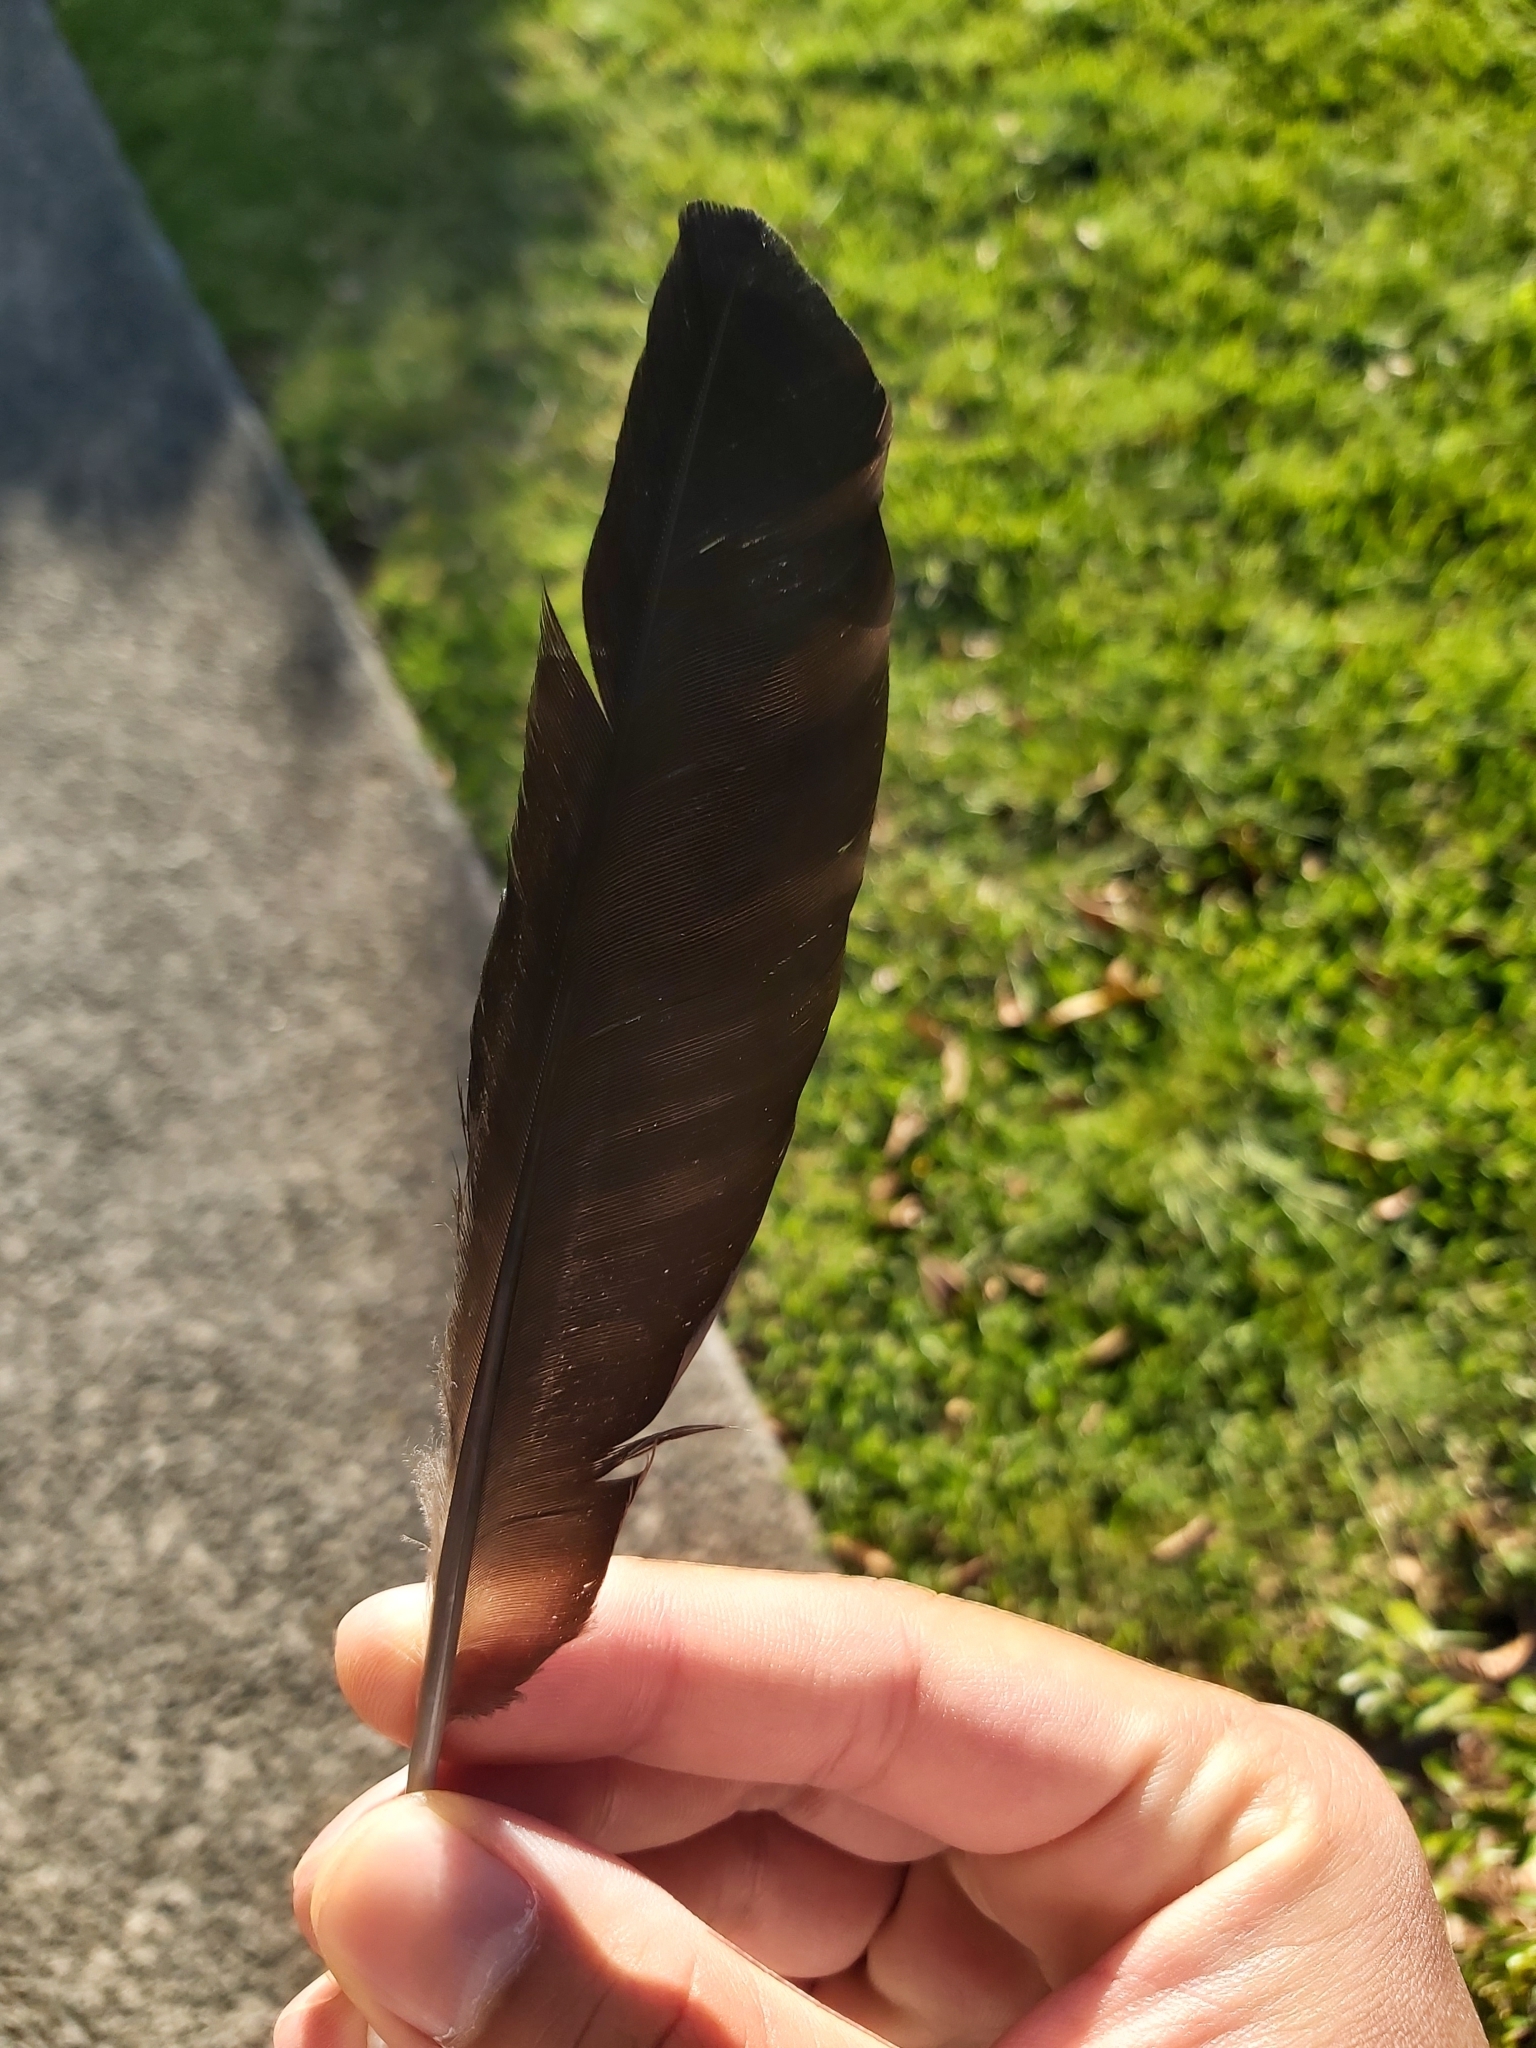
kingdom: Animalia
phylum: Chordata
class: Aves
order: Passeriformes
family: Cracticidae
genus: Gymnorhina
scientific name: Gymnorhina tibicen
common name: Australian magpie
